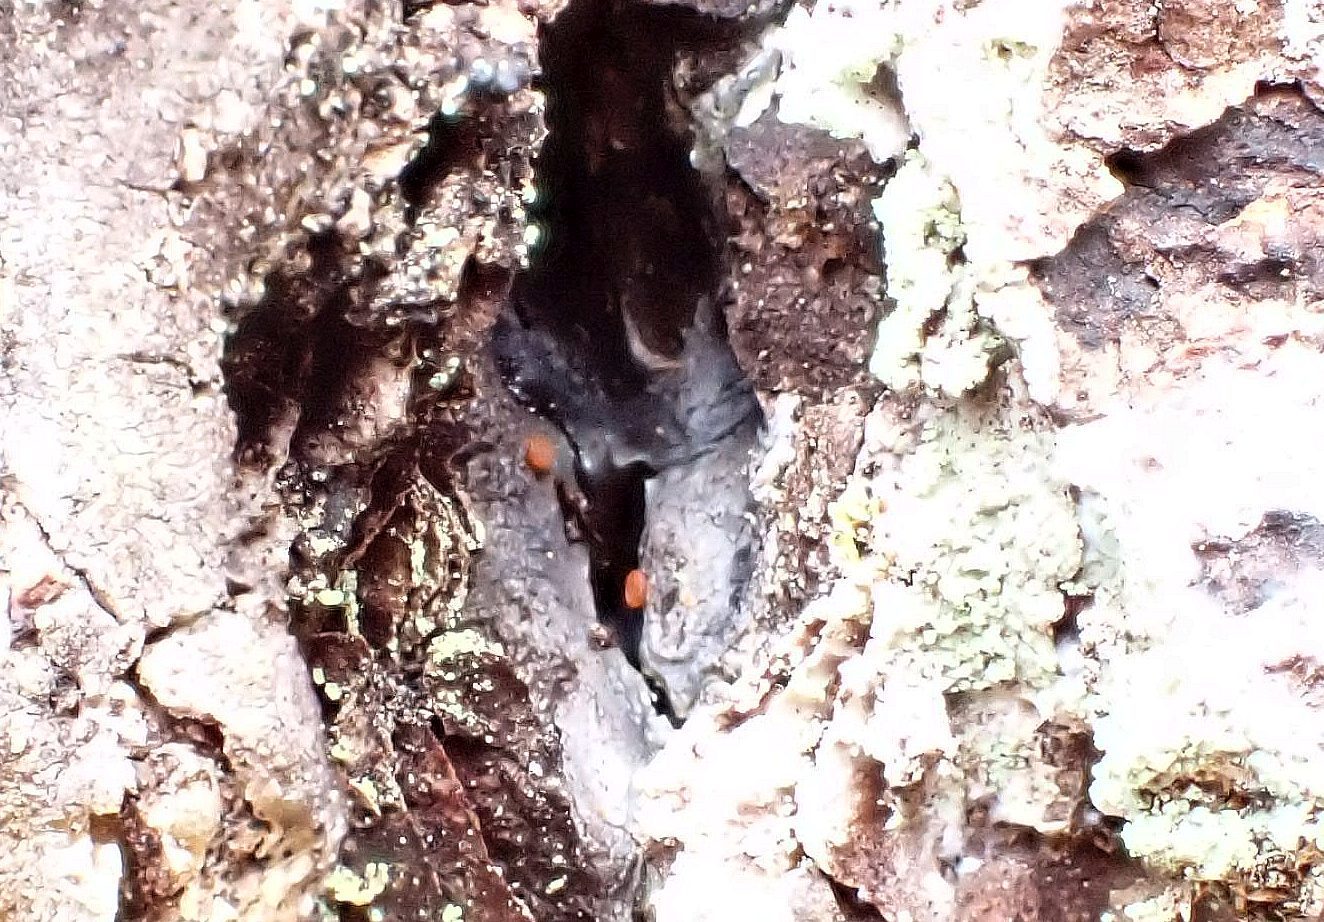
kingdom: Fungi
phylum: Ascomycota
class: Sareomycetes
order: Sareales
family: Sareaceae
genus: Sarea
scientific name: Sarea resinae
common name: Sarea lichen
